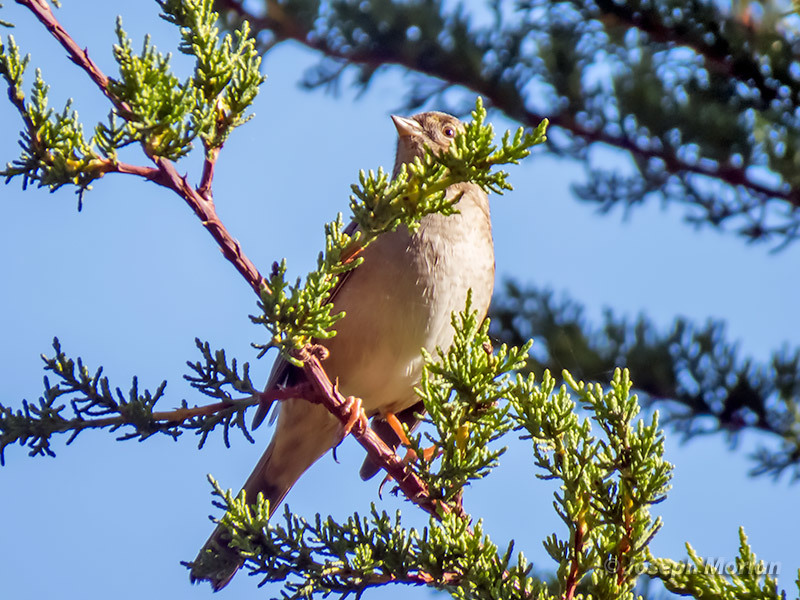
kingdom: Animalia
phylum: Chordata
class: Aves
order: Passeriformes
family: Passerellidae
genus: Zonotrichia
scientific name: Zonotrichia atricapilla
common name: Golden-crowned sparrow
